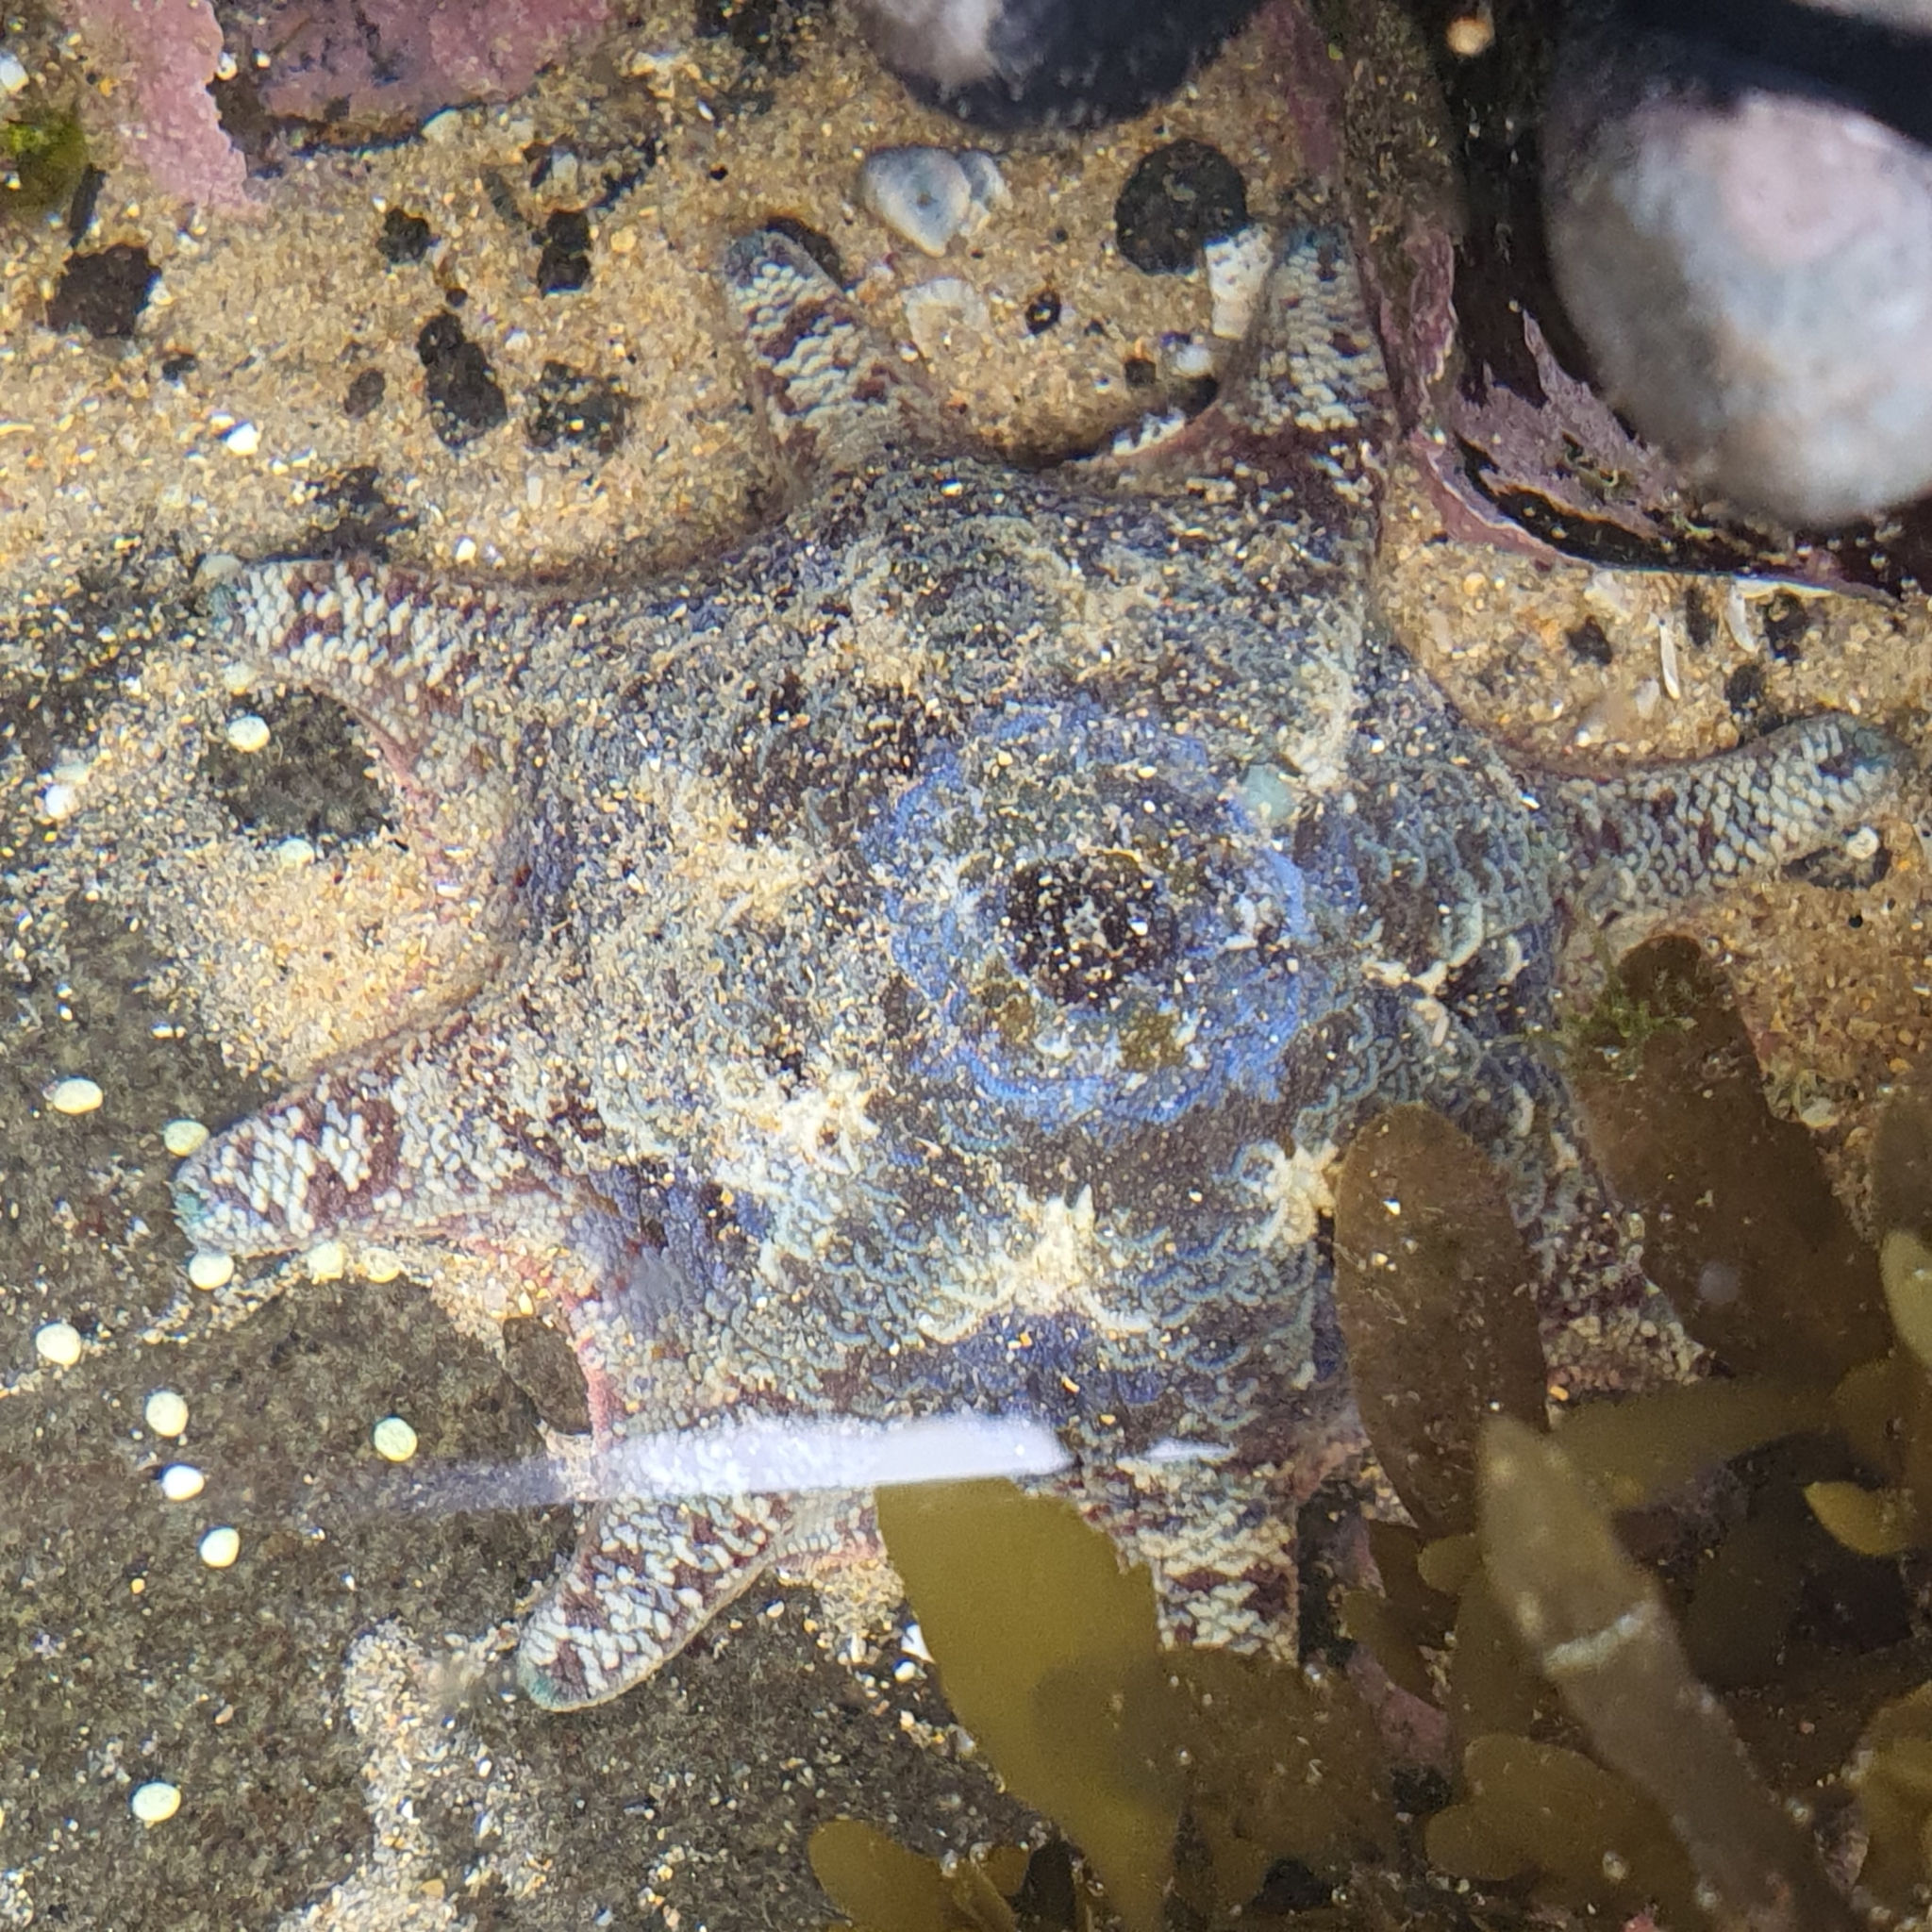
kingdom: Animalia
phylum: Echinodermata
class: Asteroidea
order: Valvatida
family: Asterinidae
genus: Meridiastra
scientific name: Meridiastra calcar
